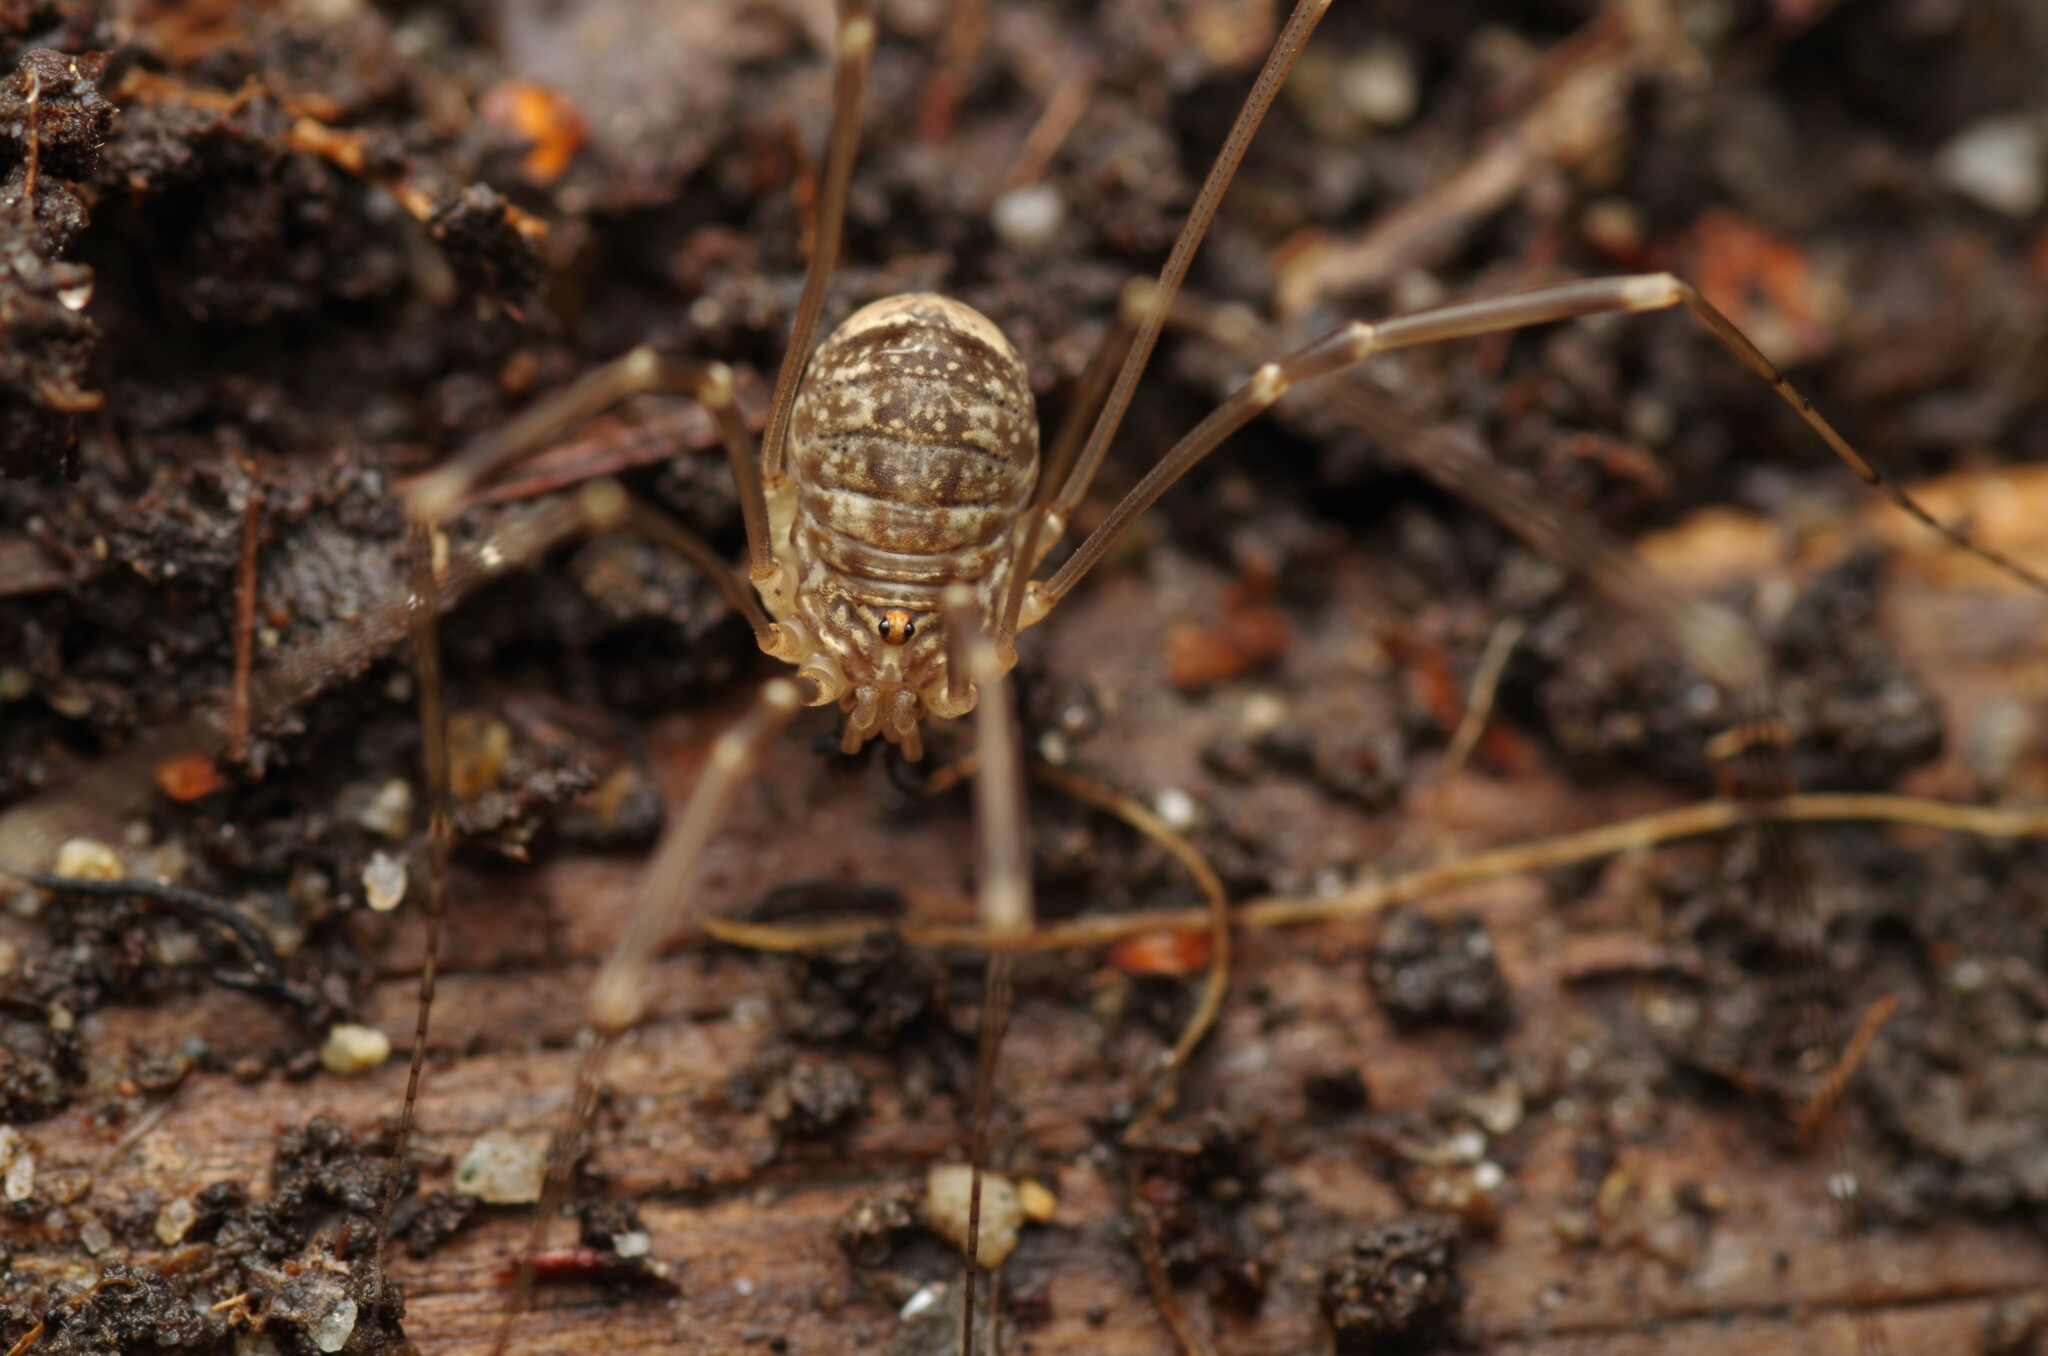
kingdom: Animalia
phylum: Arthropoda
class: Arachnida
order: Opiliones
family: Sclerosomatidae
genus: Nelima
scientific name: Nelima gothica
